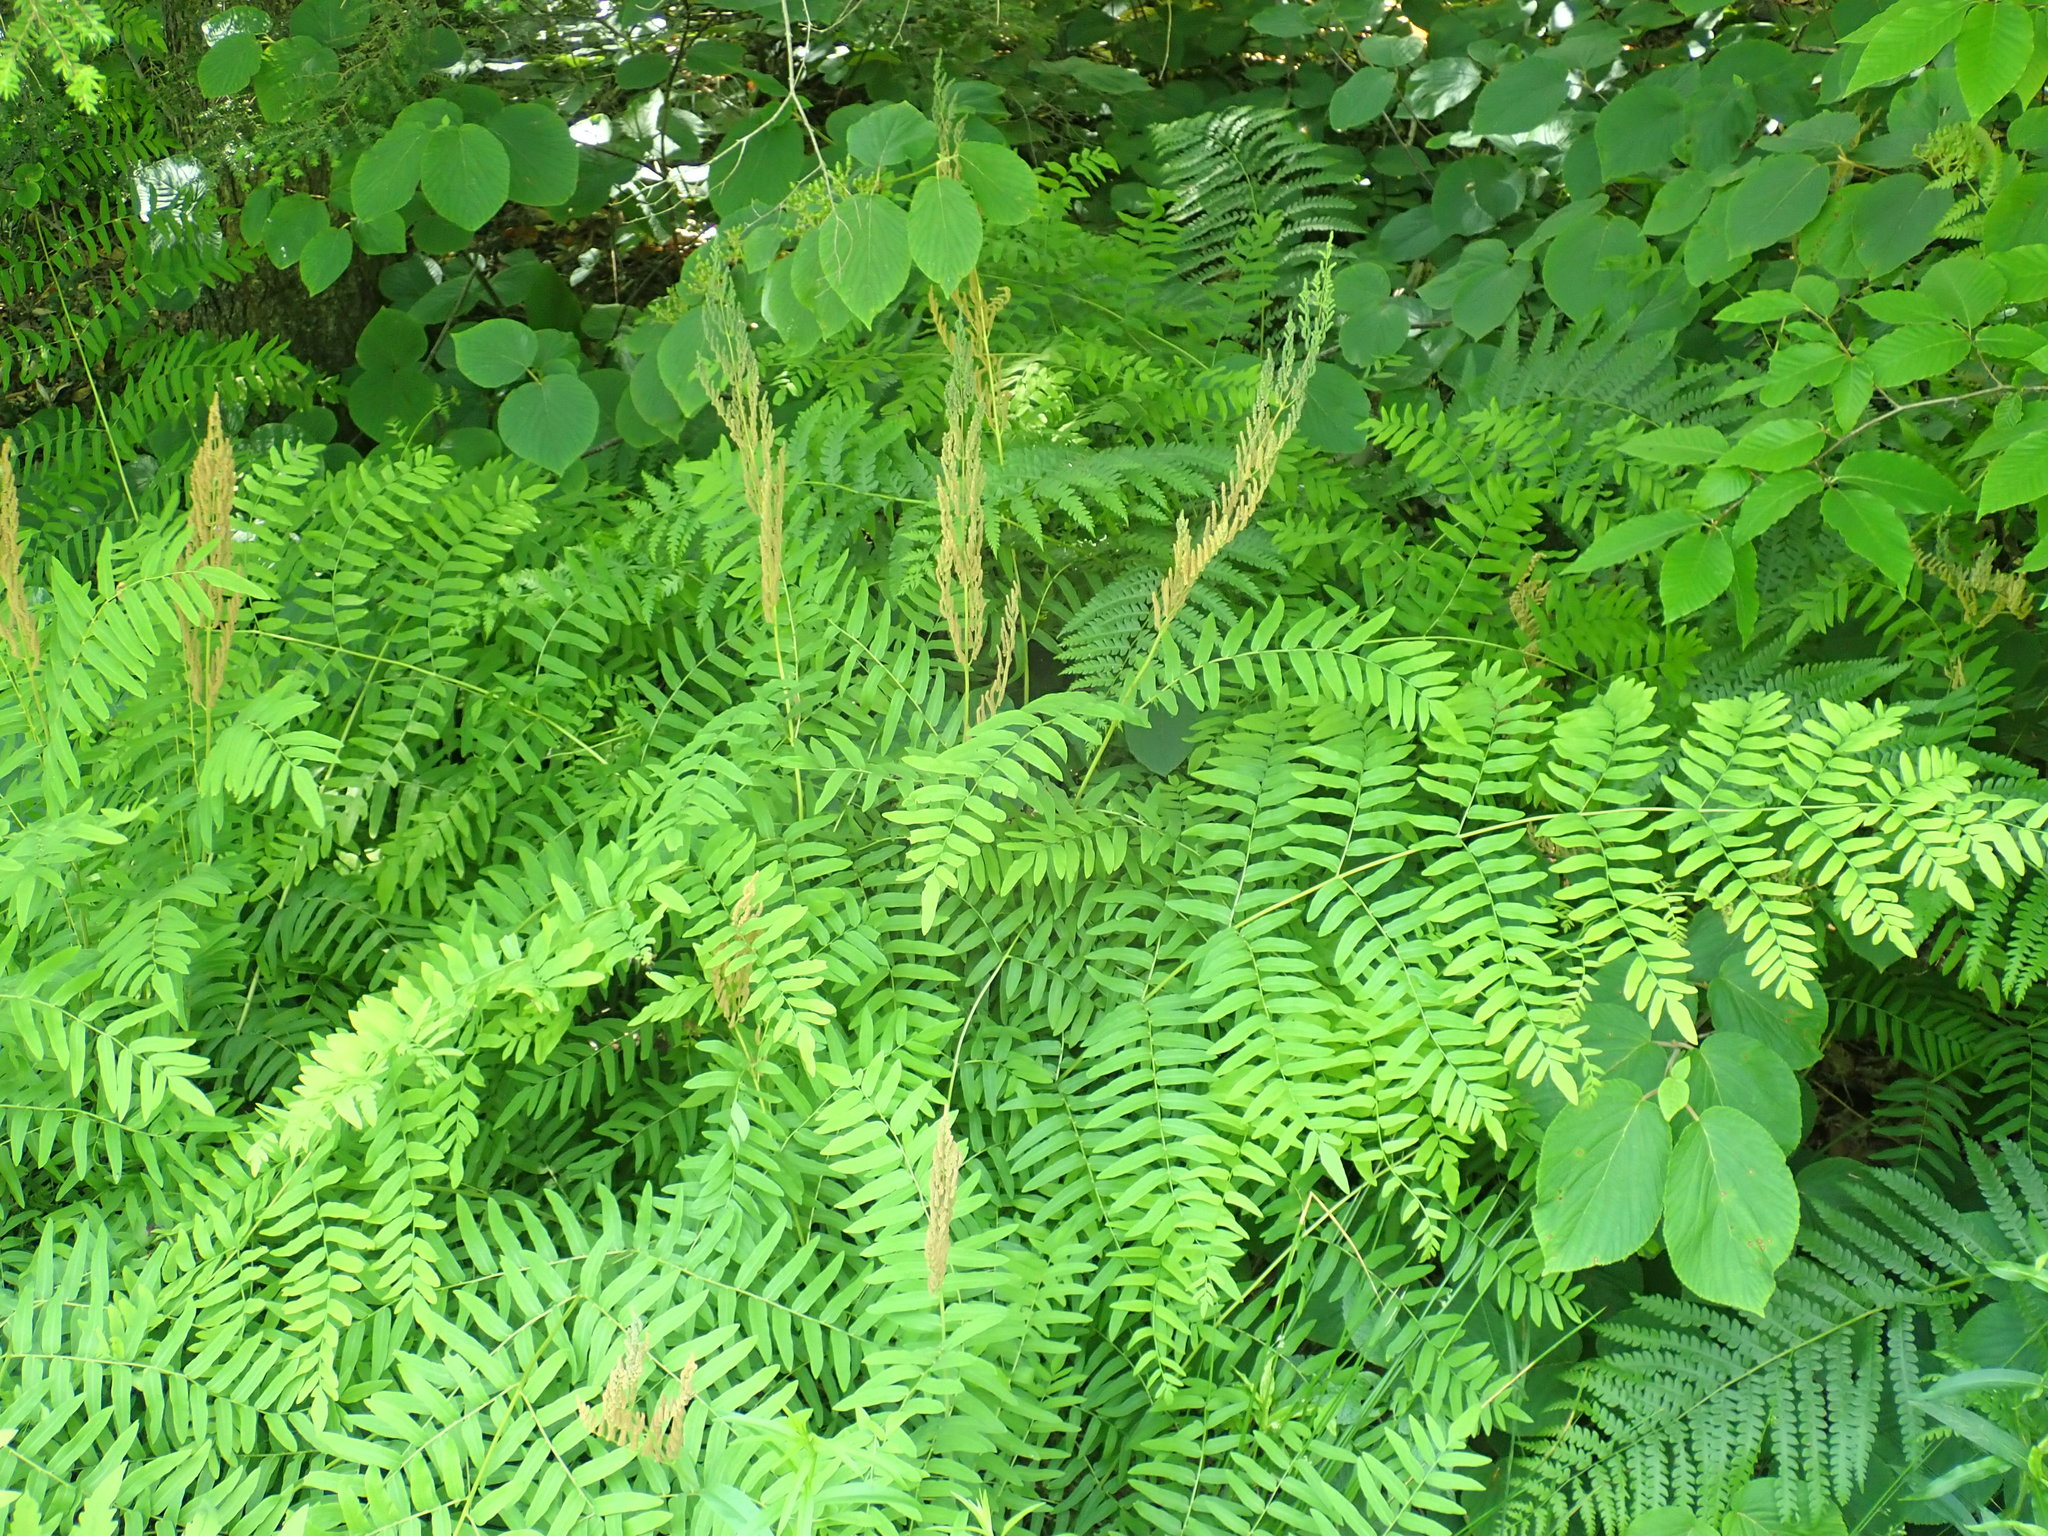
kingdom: Plantae
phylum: Tracheophyta
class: Polypodiopsida
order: Osmundales
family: Osmundaceae
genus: Osmunda
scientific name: Osmunda spectabilis
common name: American royal fern
